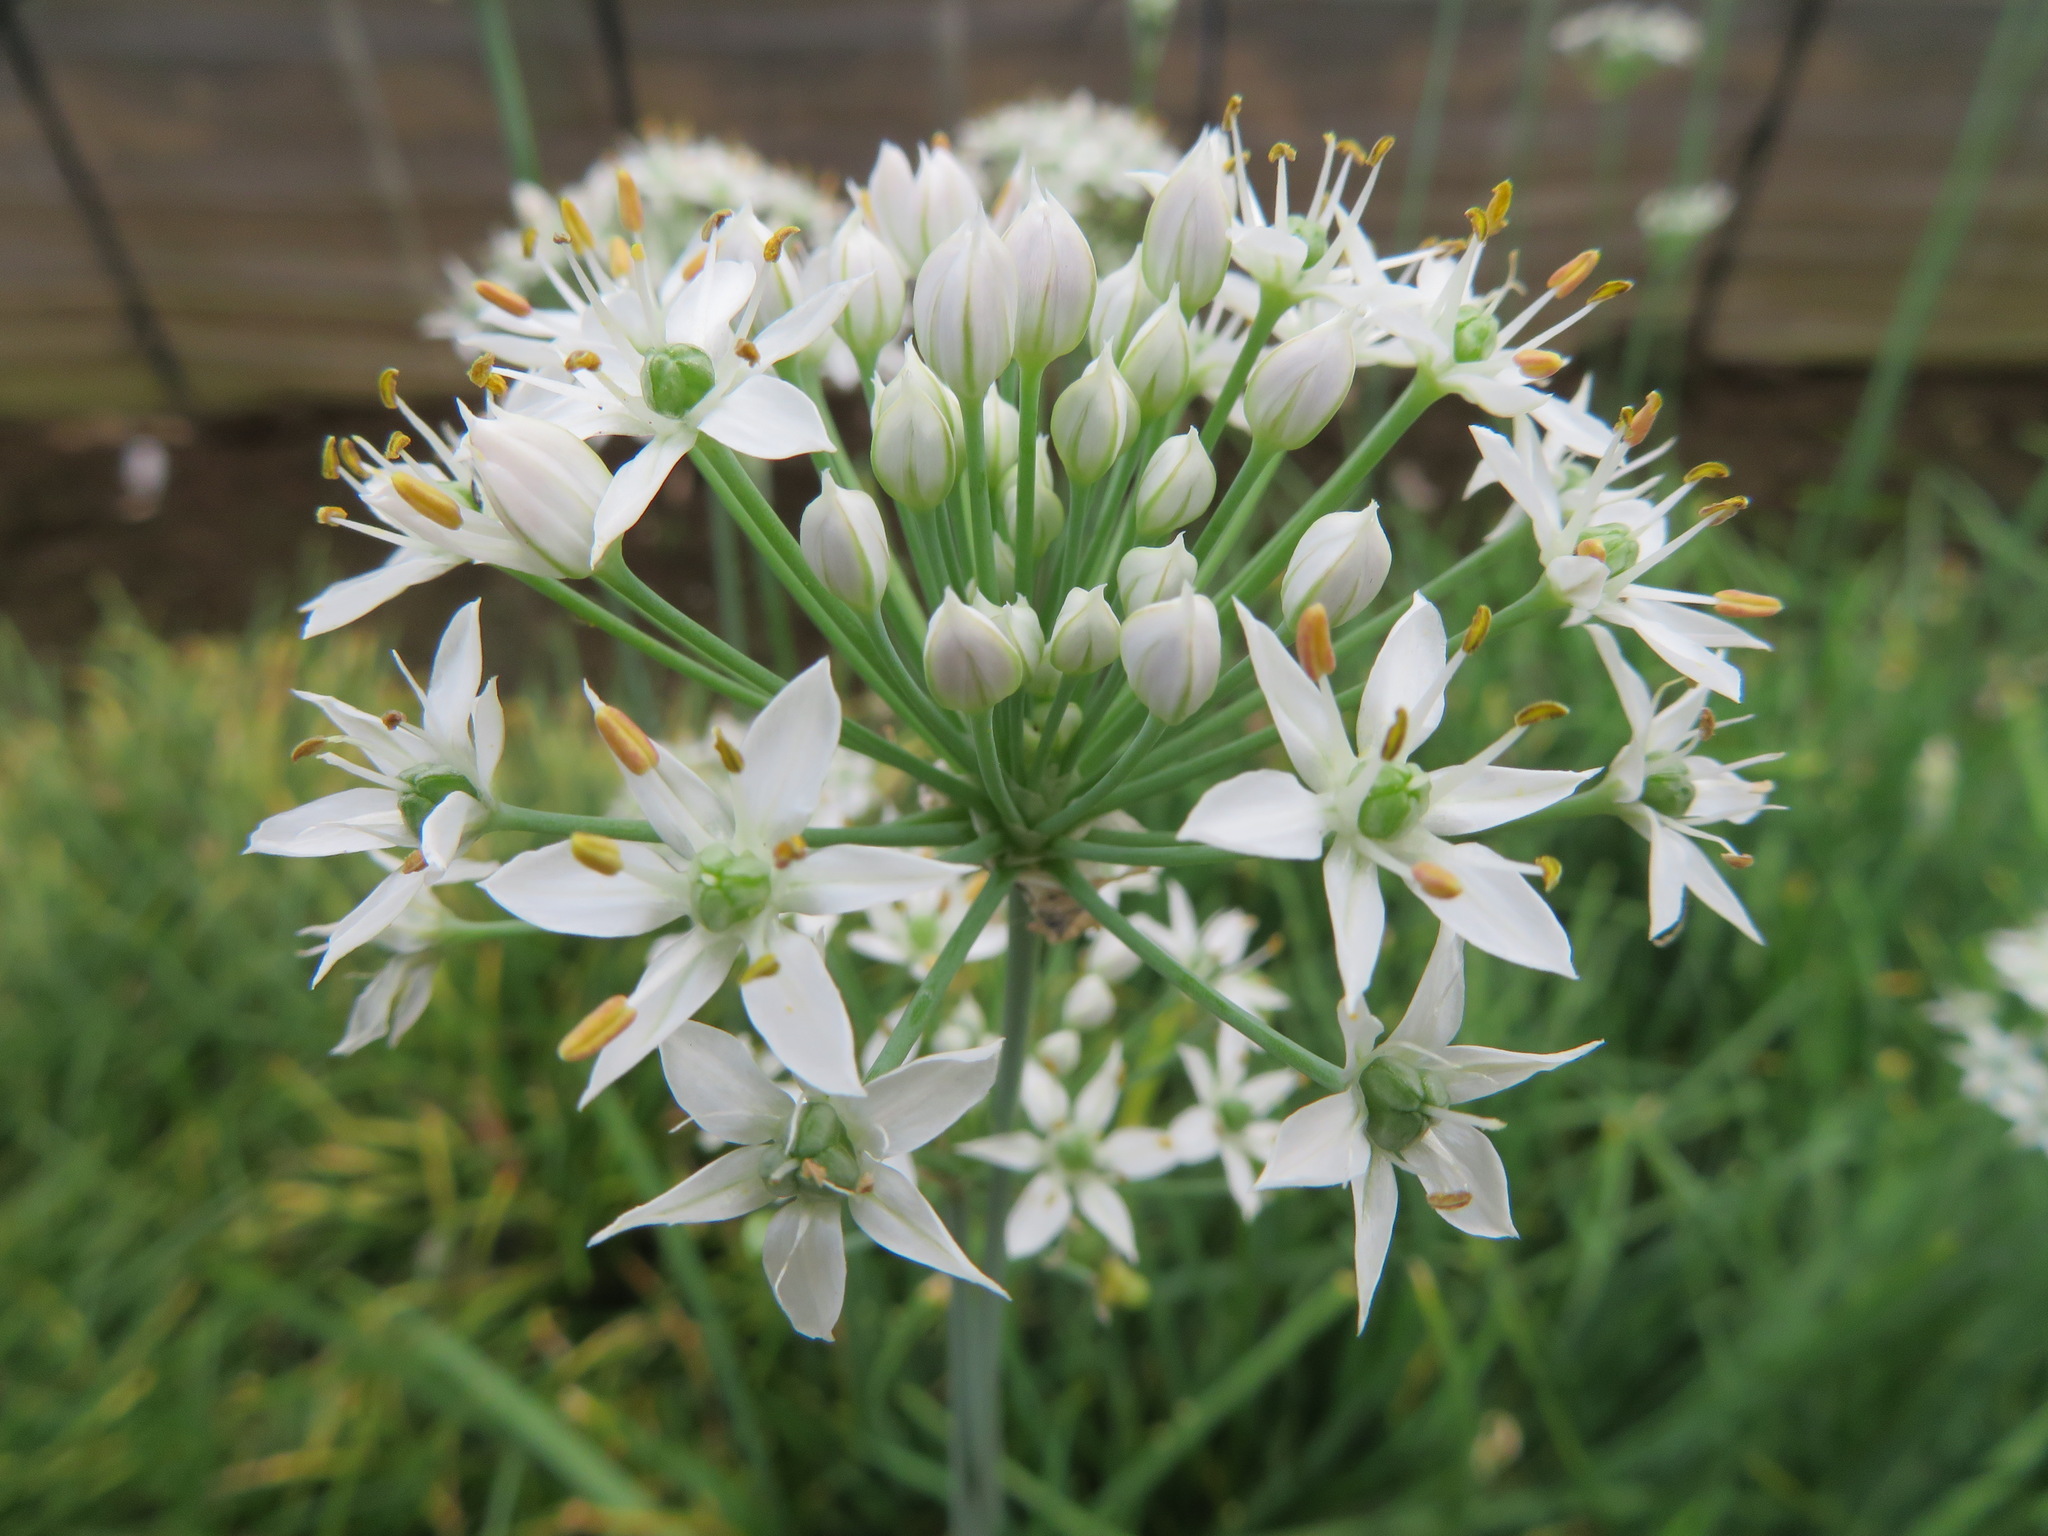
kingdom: Plantae
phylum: Tracheophyta
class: Liliopsida
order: Asparagales
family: Amaryllidaceae
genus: Allium
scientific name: Allium tuberosum
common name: Chinese chives
